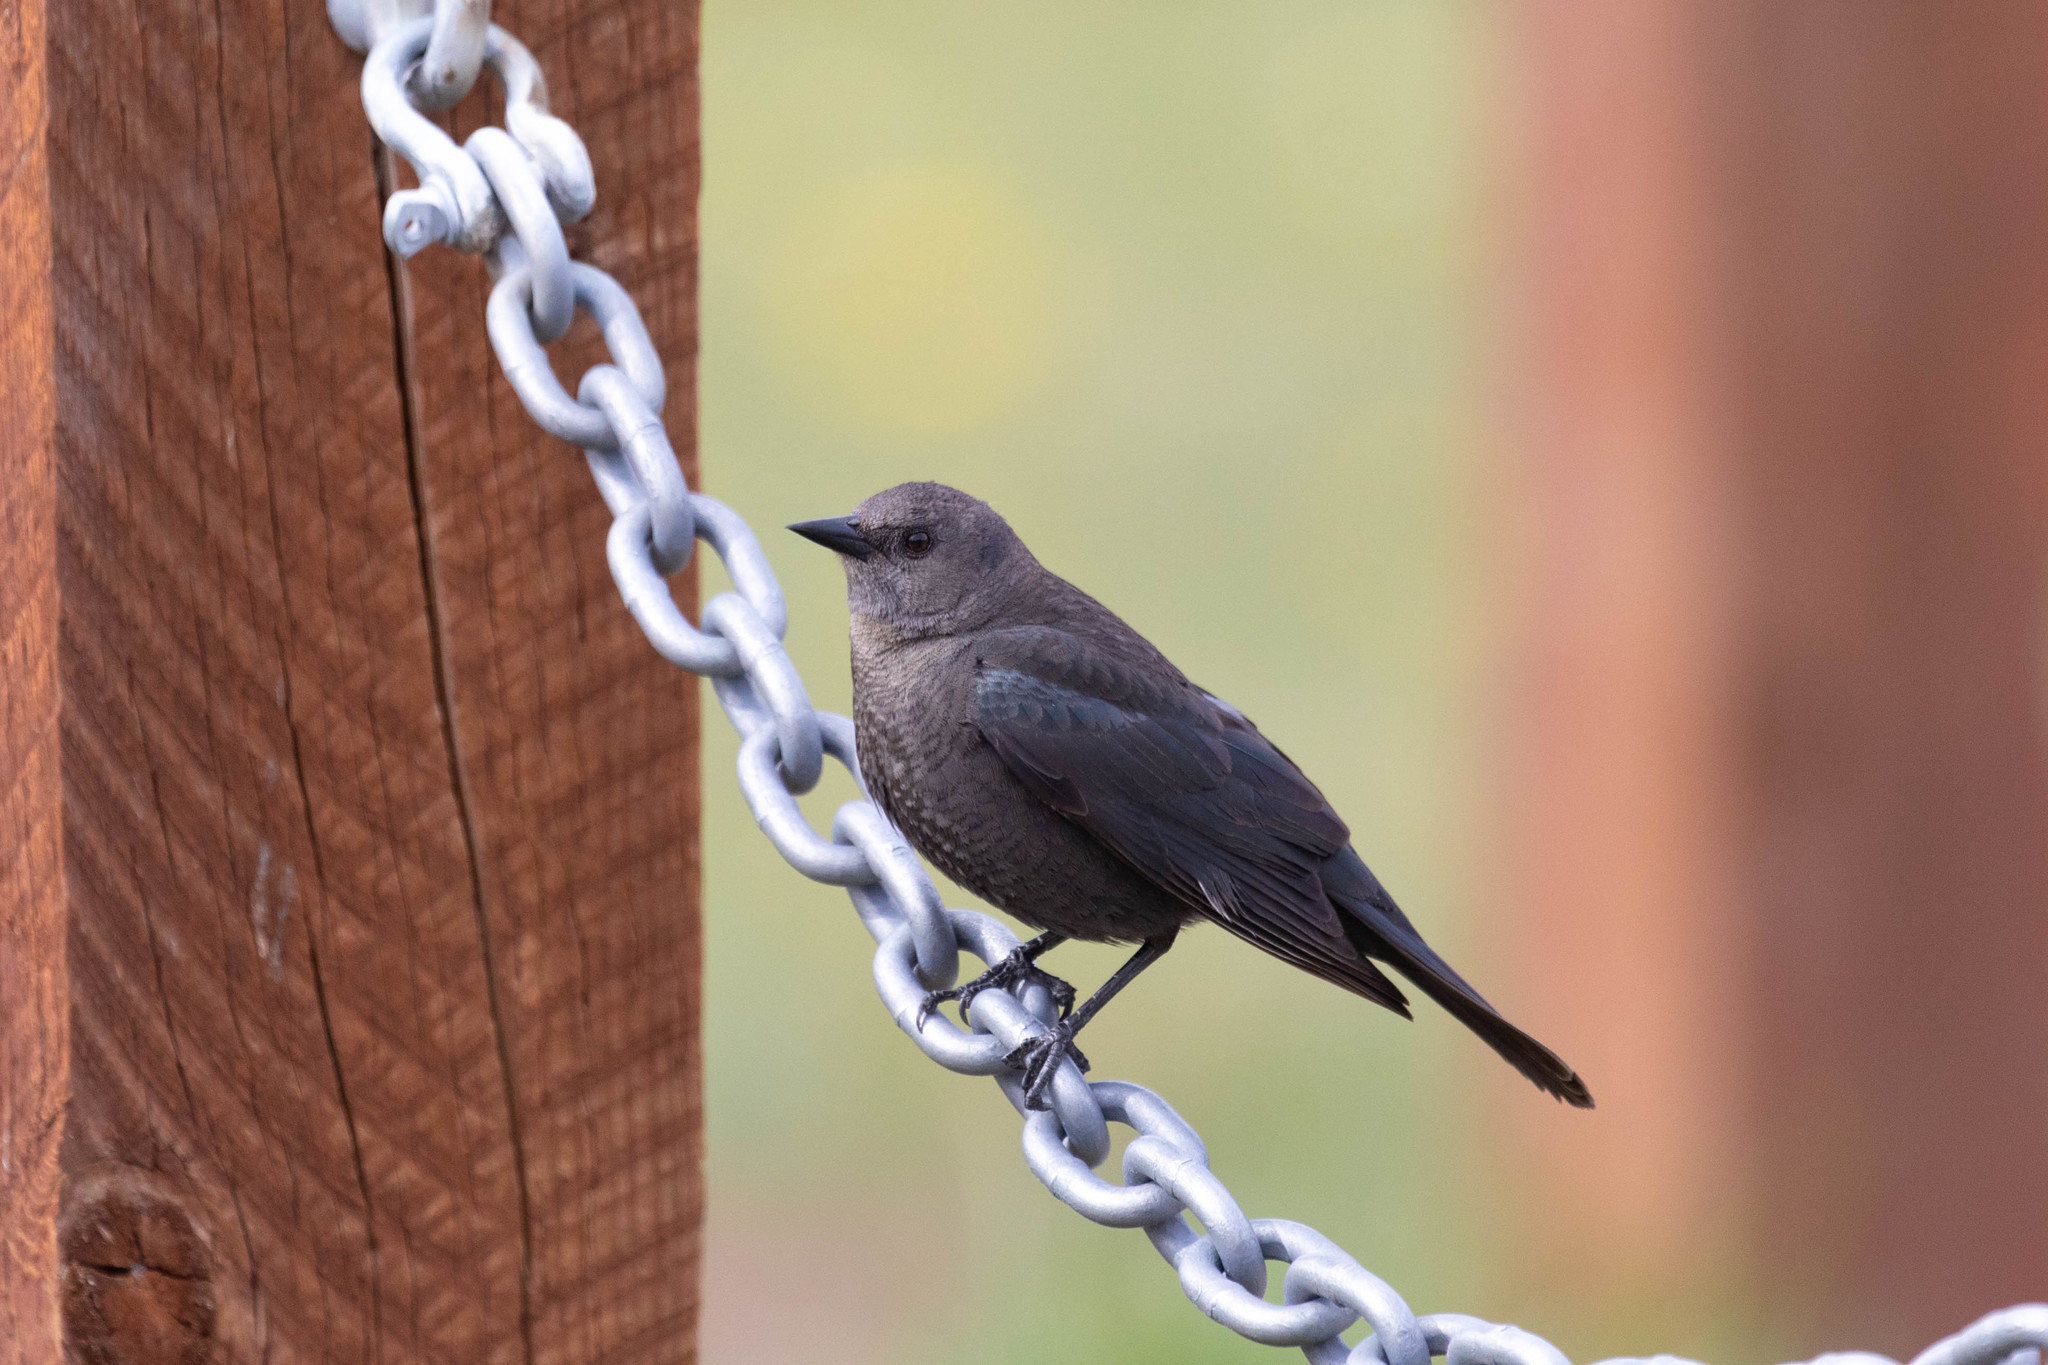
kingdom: Animalia
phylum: Chordata
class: Aves
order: Passeriformes
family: Icteridae
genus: Euphagus
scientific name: Euphagus cyanocephalus
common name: Brewer's blackbird
